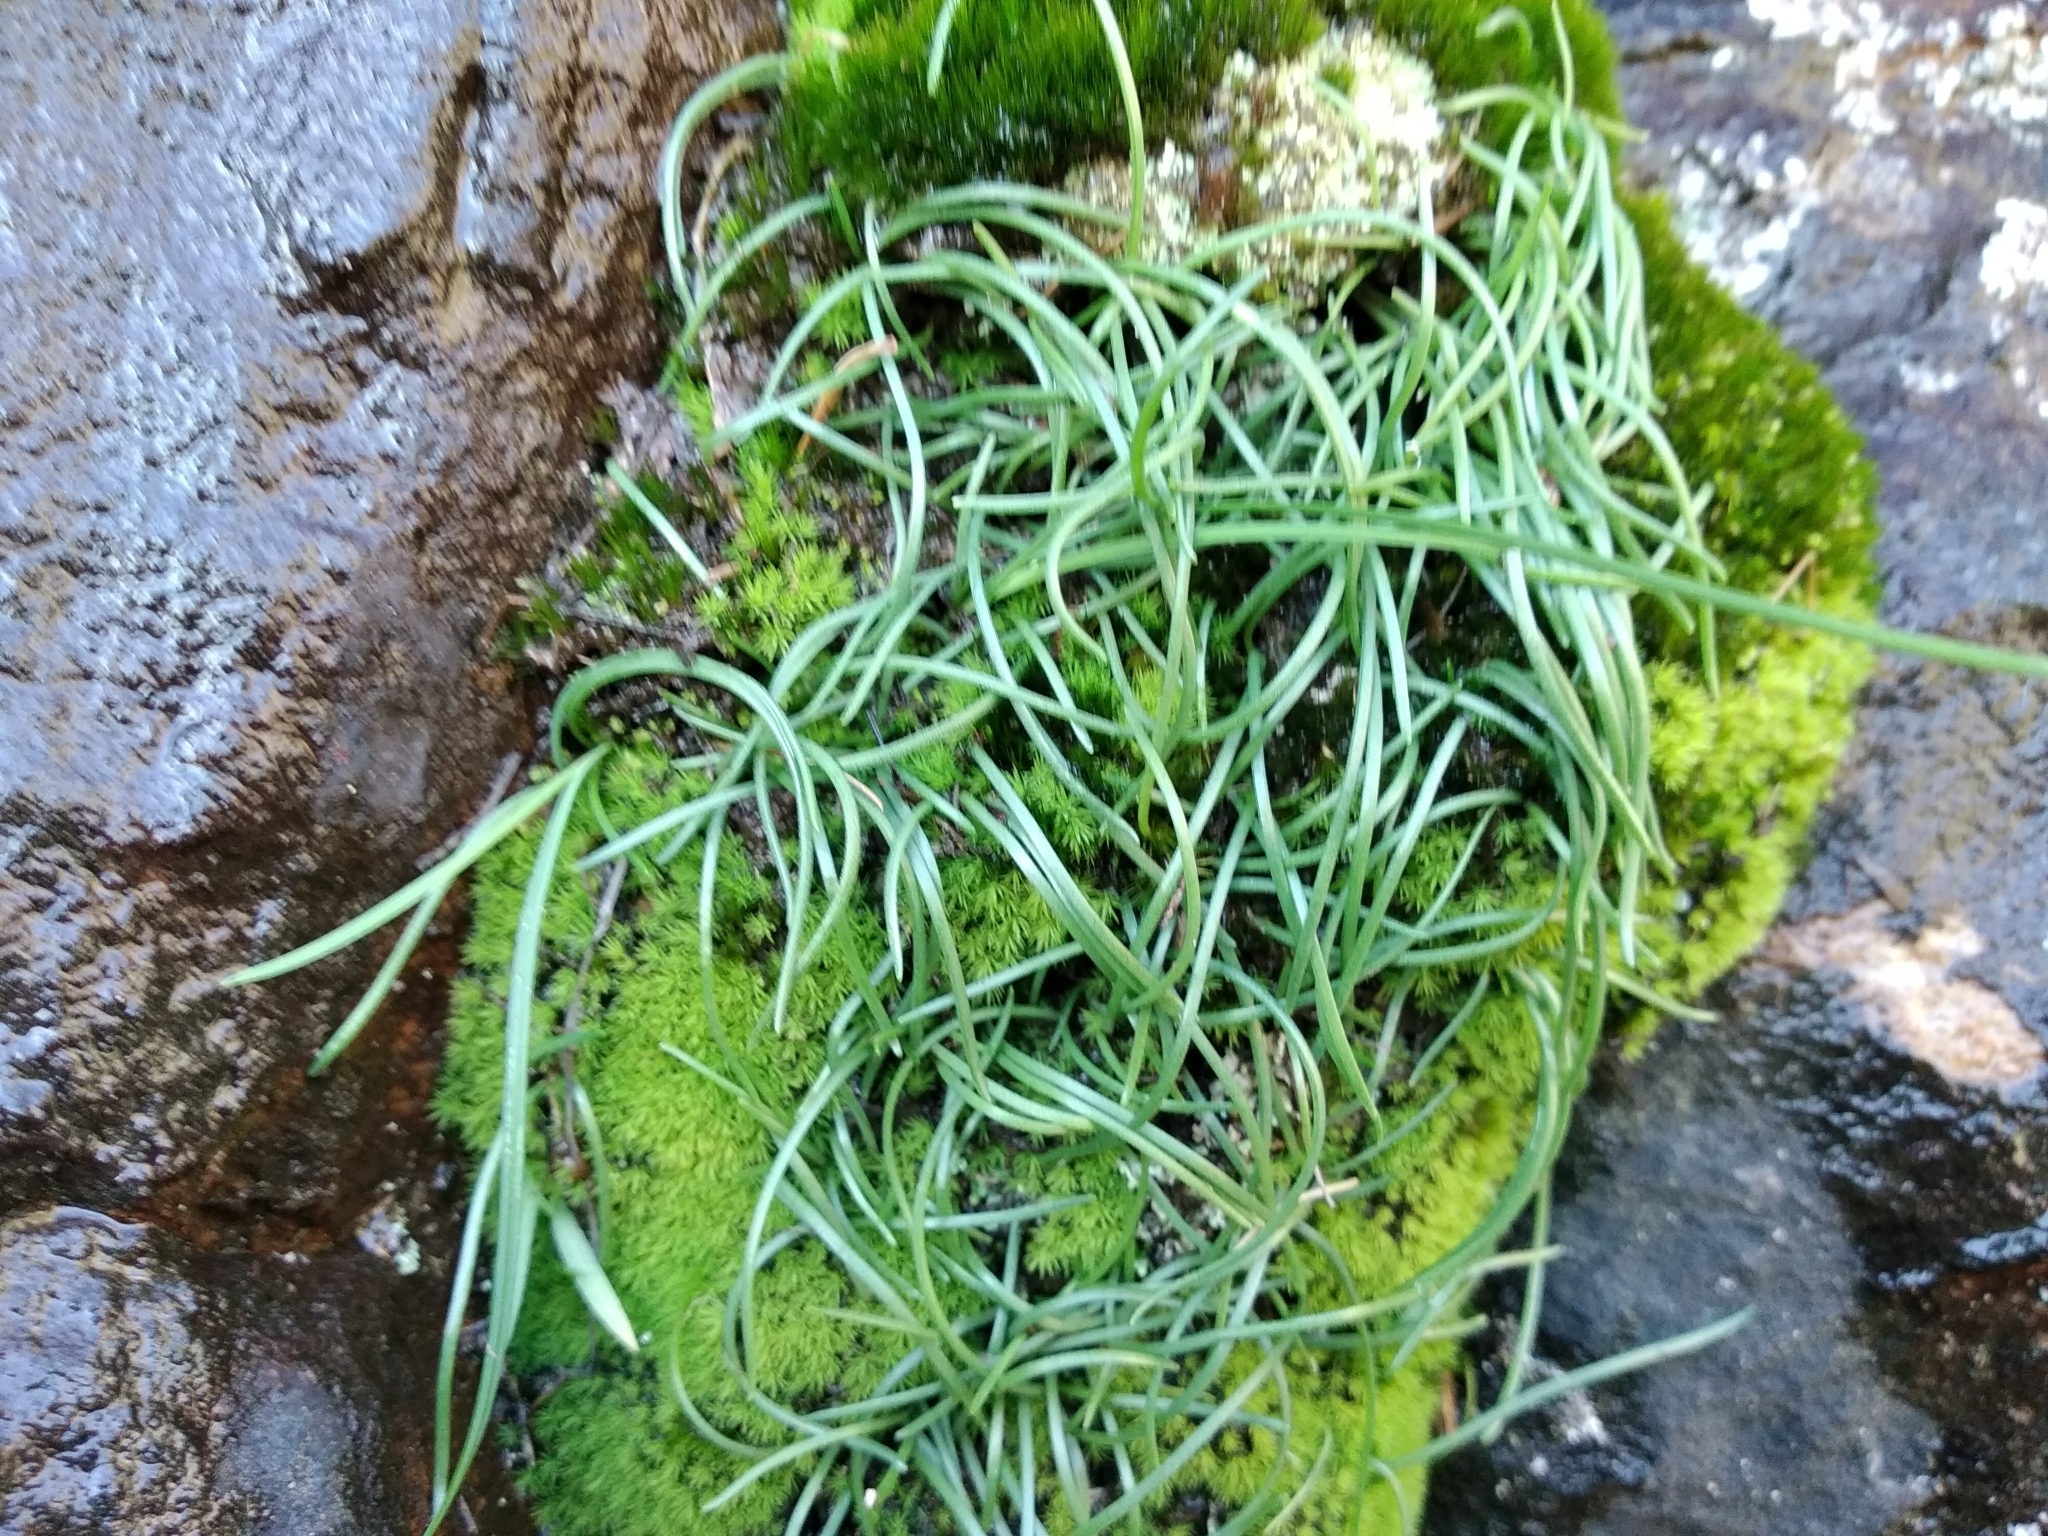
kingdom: Plantae
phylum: Tracheophyta
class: Liliopsida
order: Asparagales
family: Asparagaceae
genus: Ornithogalum
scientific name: Ornithogalum niveum
